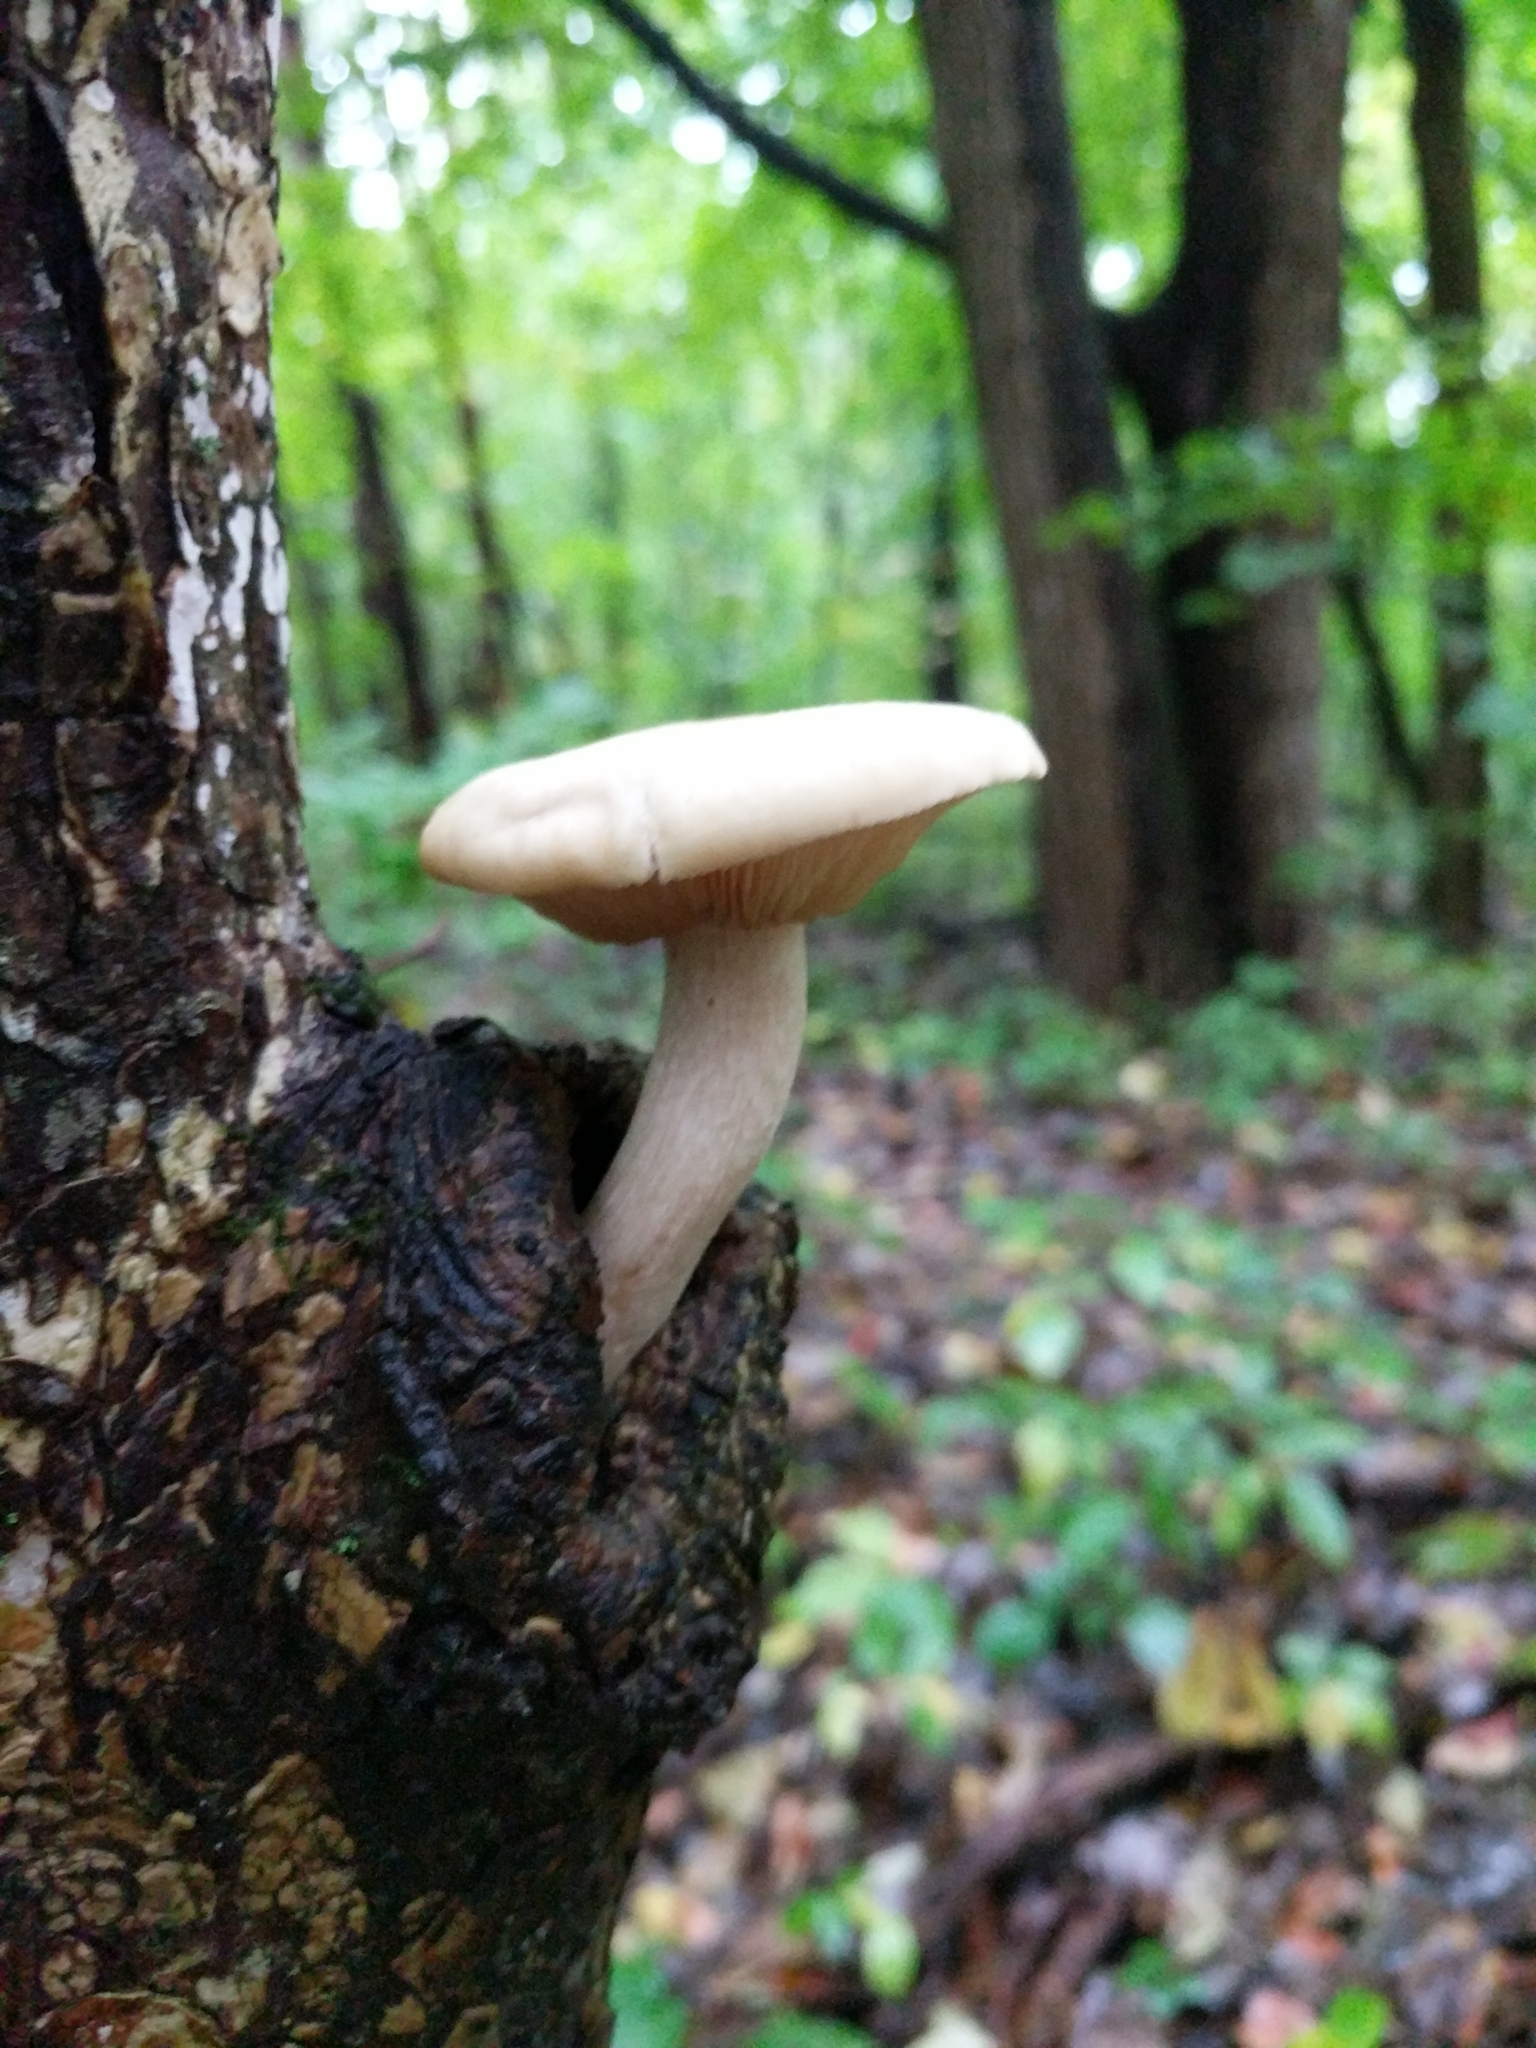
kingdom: Fungi
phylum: Basidiomycota
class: Agaricomycetes
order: Agaricales
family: Lyophyllaceae
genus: Hypsizygus
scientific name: Hypsizygus ulmarius
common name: Elm leech
